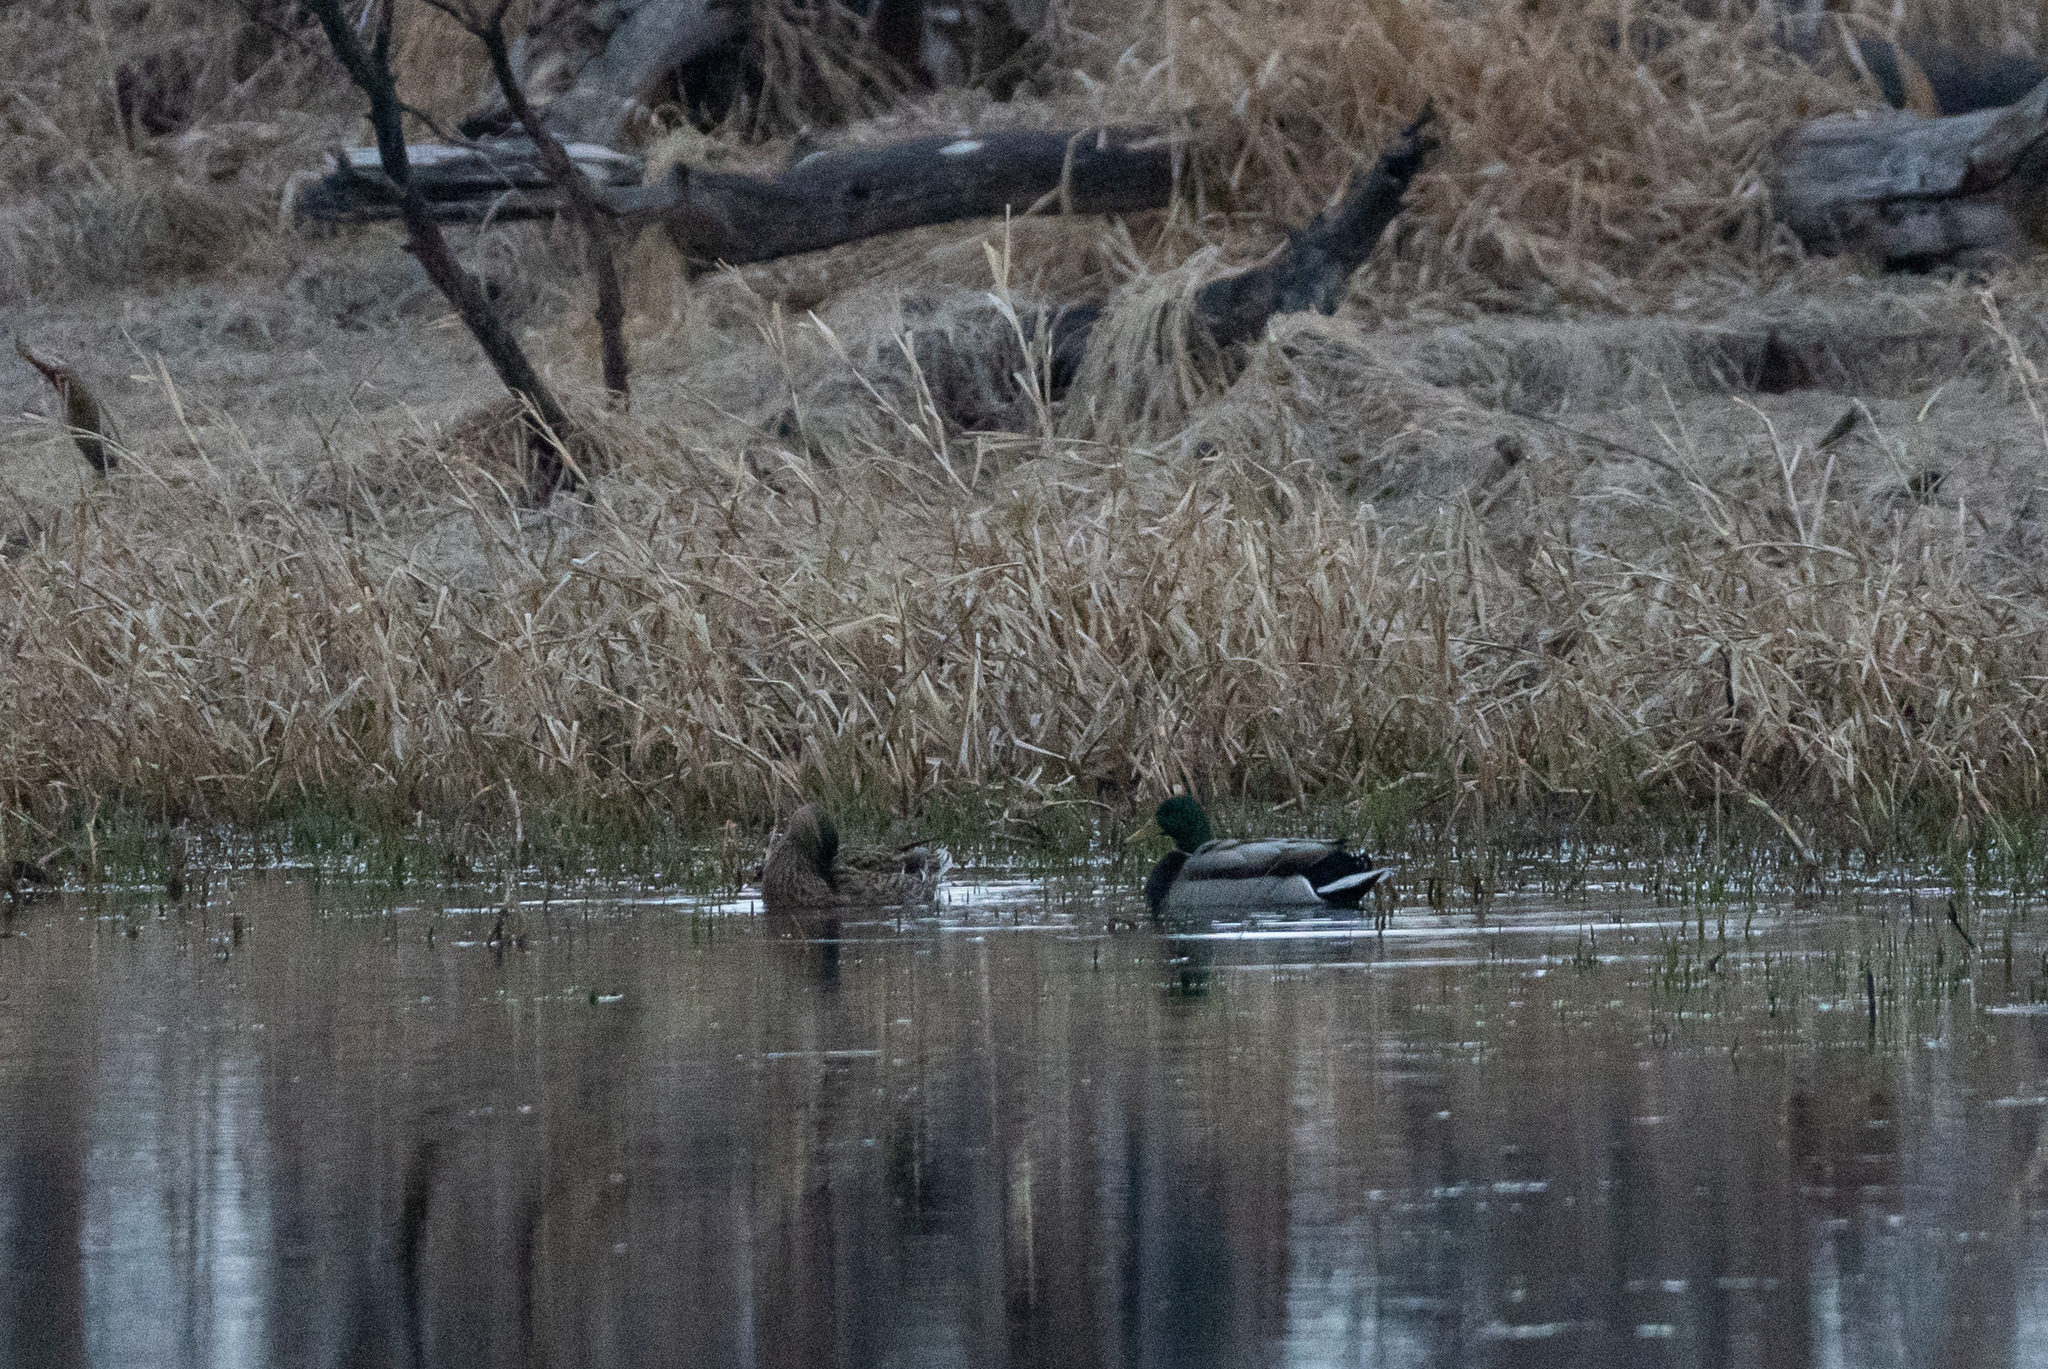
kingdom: Animalia
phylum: Chordata
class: Aves
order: Anseriformes
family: Anatidae
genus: Anas
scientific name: Anas platyrhynchos
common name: Mallard
